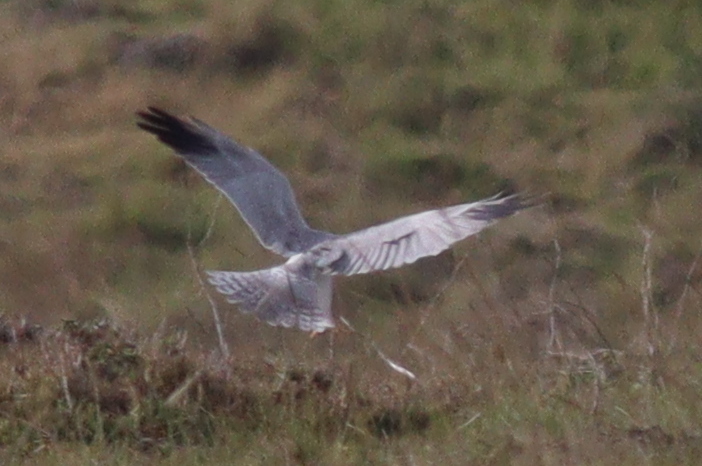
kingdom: Animalia
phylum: Chordata
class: Aves
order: Accipitriformes
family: Accipitridae
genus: Circus
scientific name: Circus macrourus
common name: Pallid harrier
